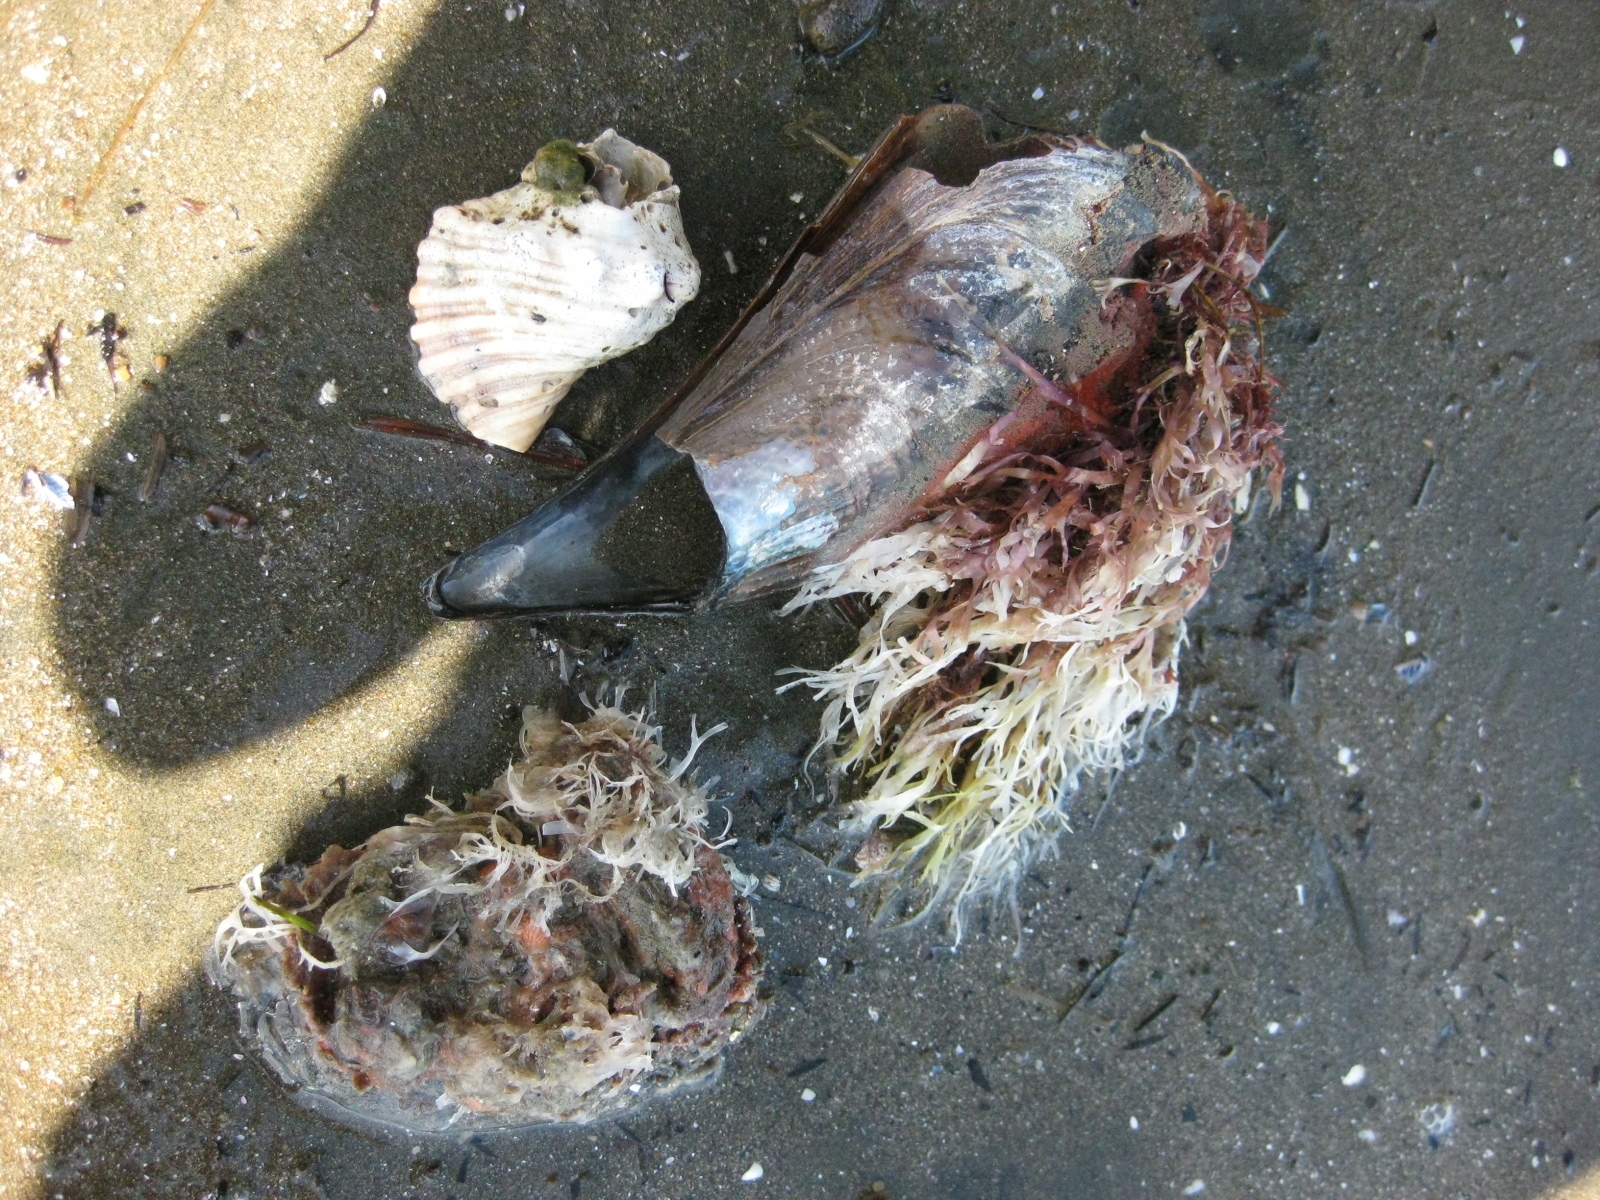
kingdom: Animalia
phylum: Mollusca
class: Bivalvia
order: Ostreida
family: Pinnidae
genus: Atrina
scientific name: Atrina zelandica
